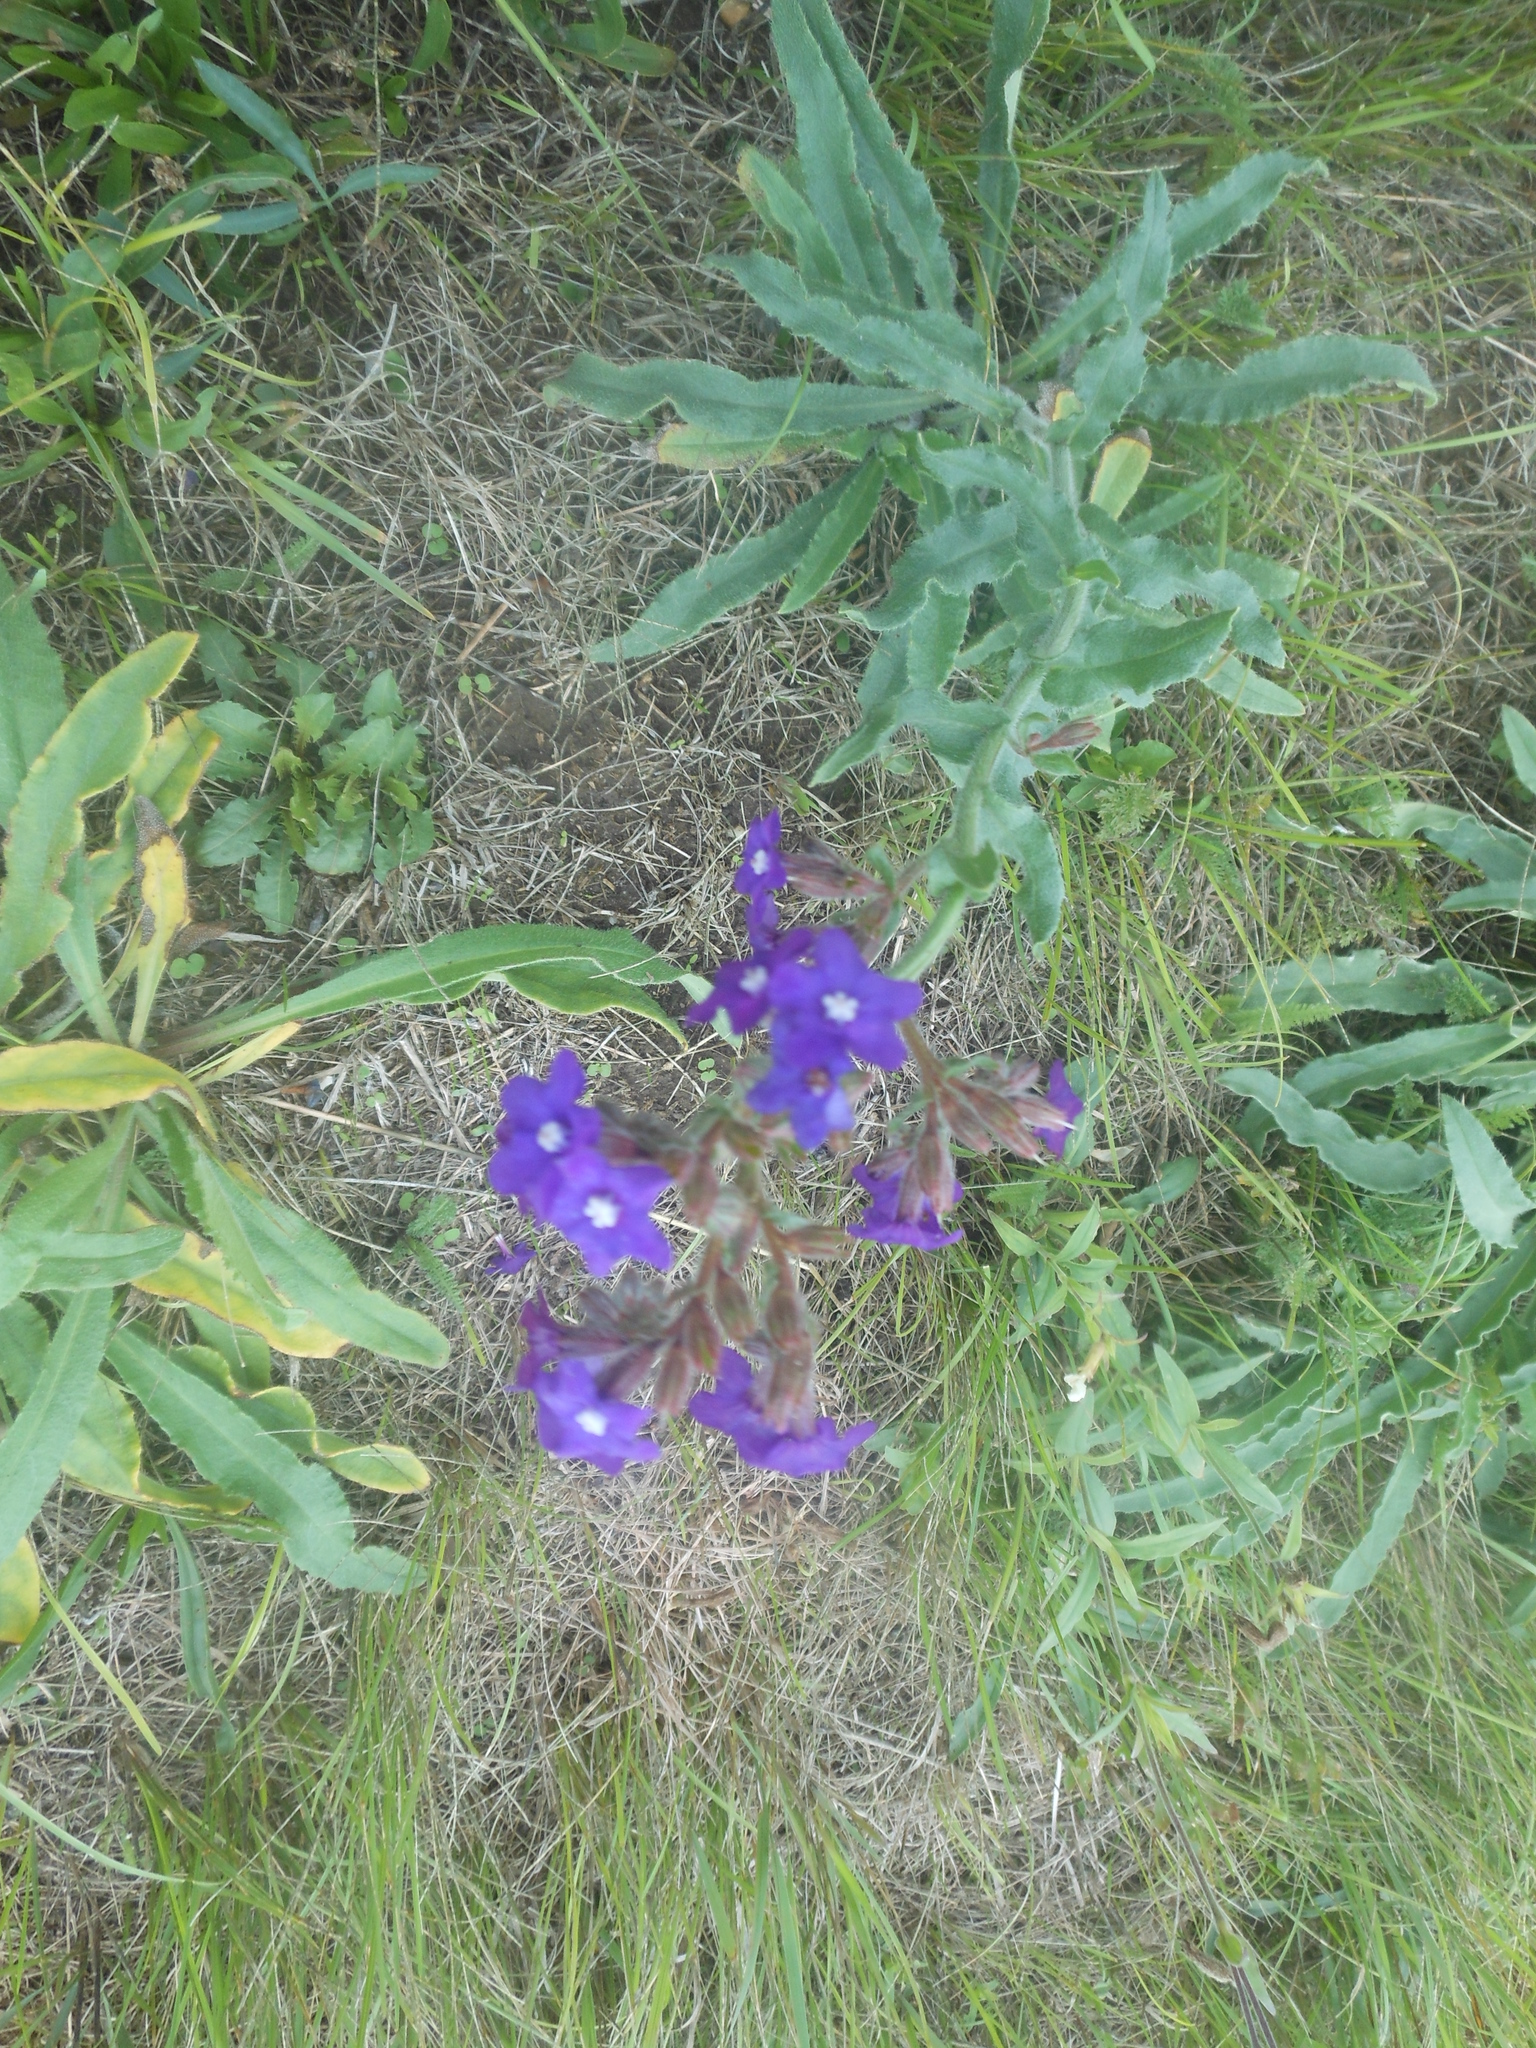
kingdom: Plantae
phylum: Tracheophyta
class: Magnoliopsida
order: Boraginales
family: Boraginaceae
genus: Anchusa
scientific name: Anchusa officinalis
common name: Alkanet
